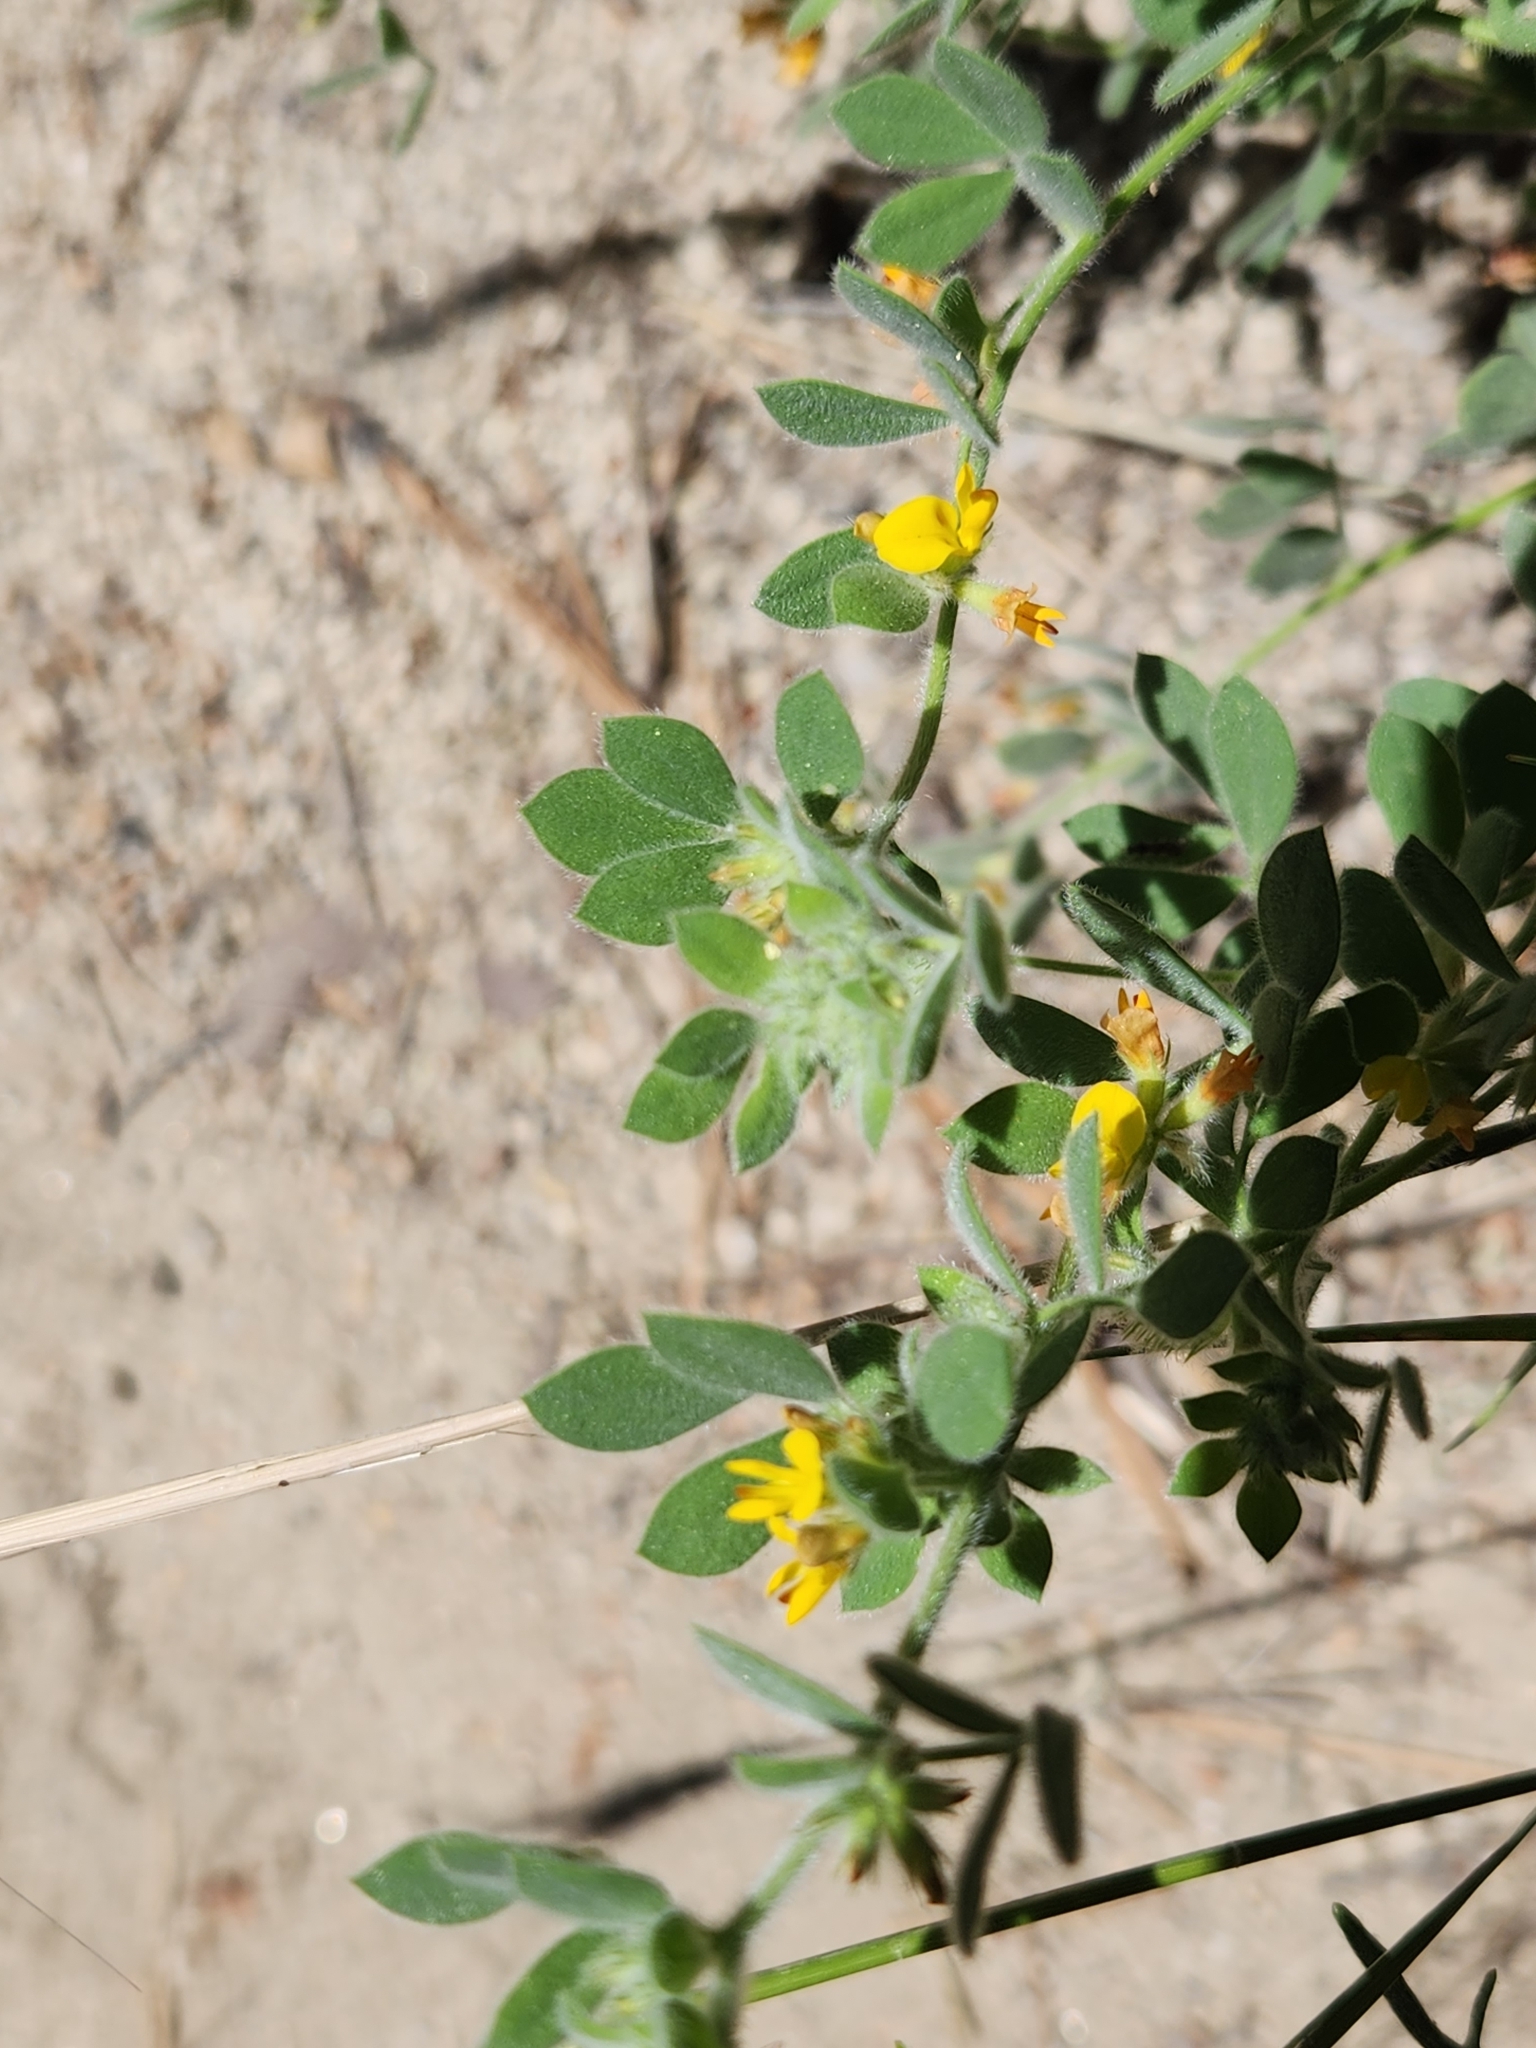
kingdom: Plantae
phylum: Tracheophyta
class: Magnoliopsida
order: Fabales
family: Fabaceae
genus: Acmispon
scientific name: Acmispon tomentosus
